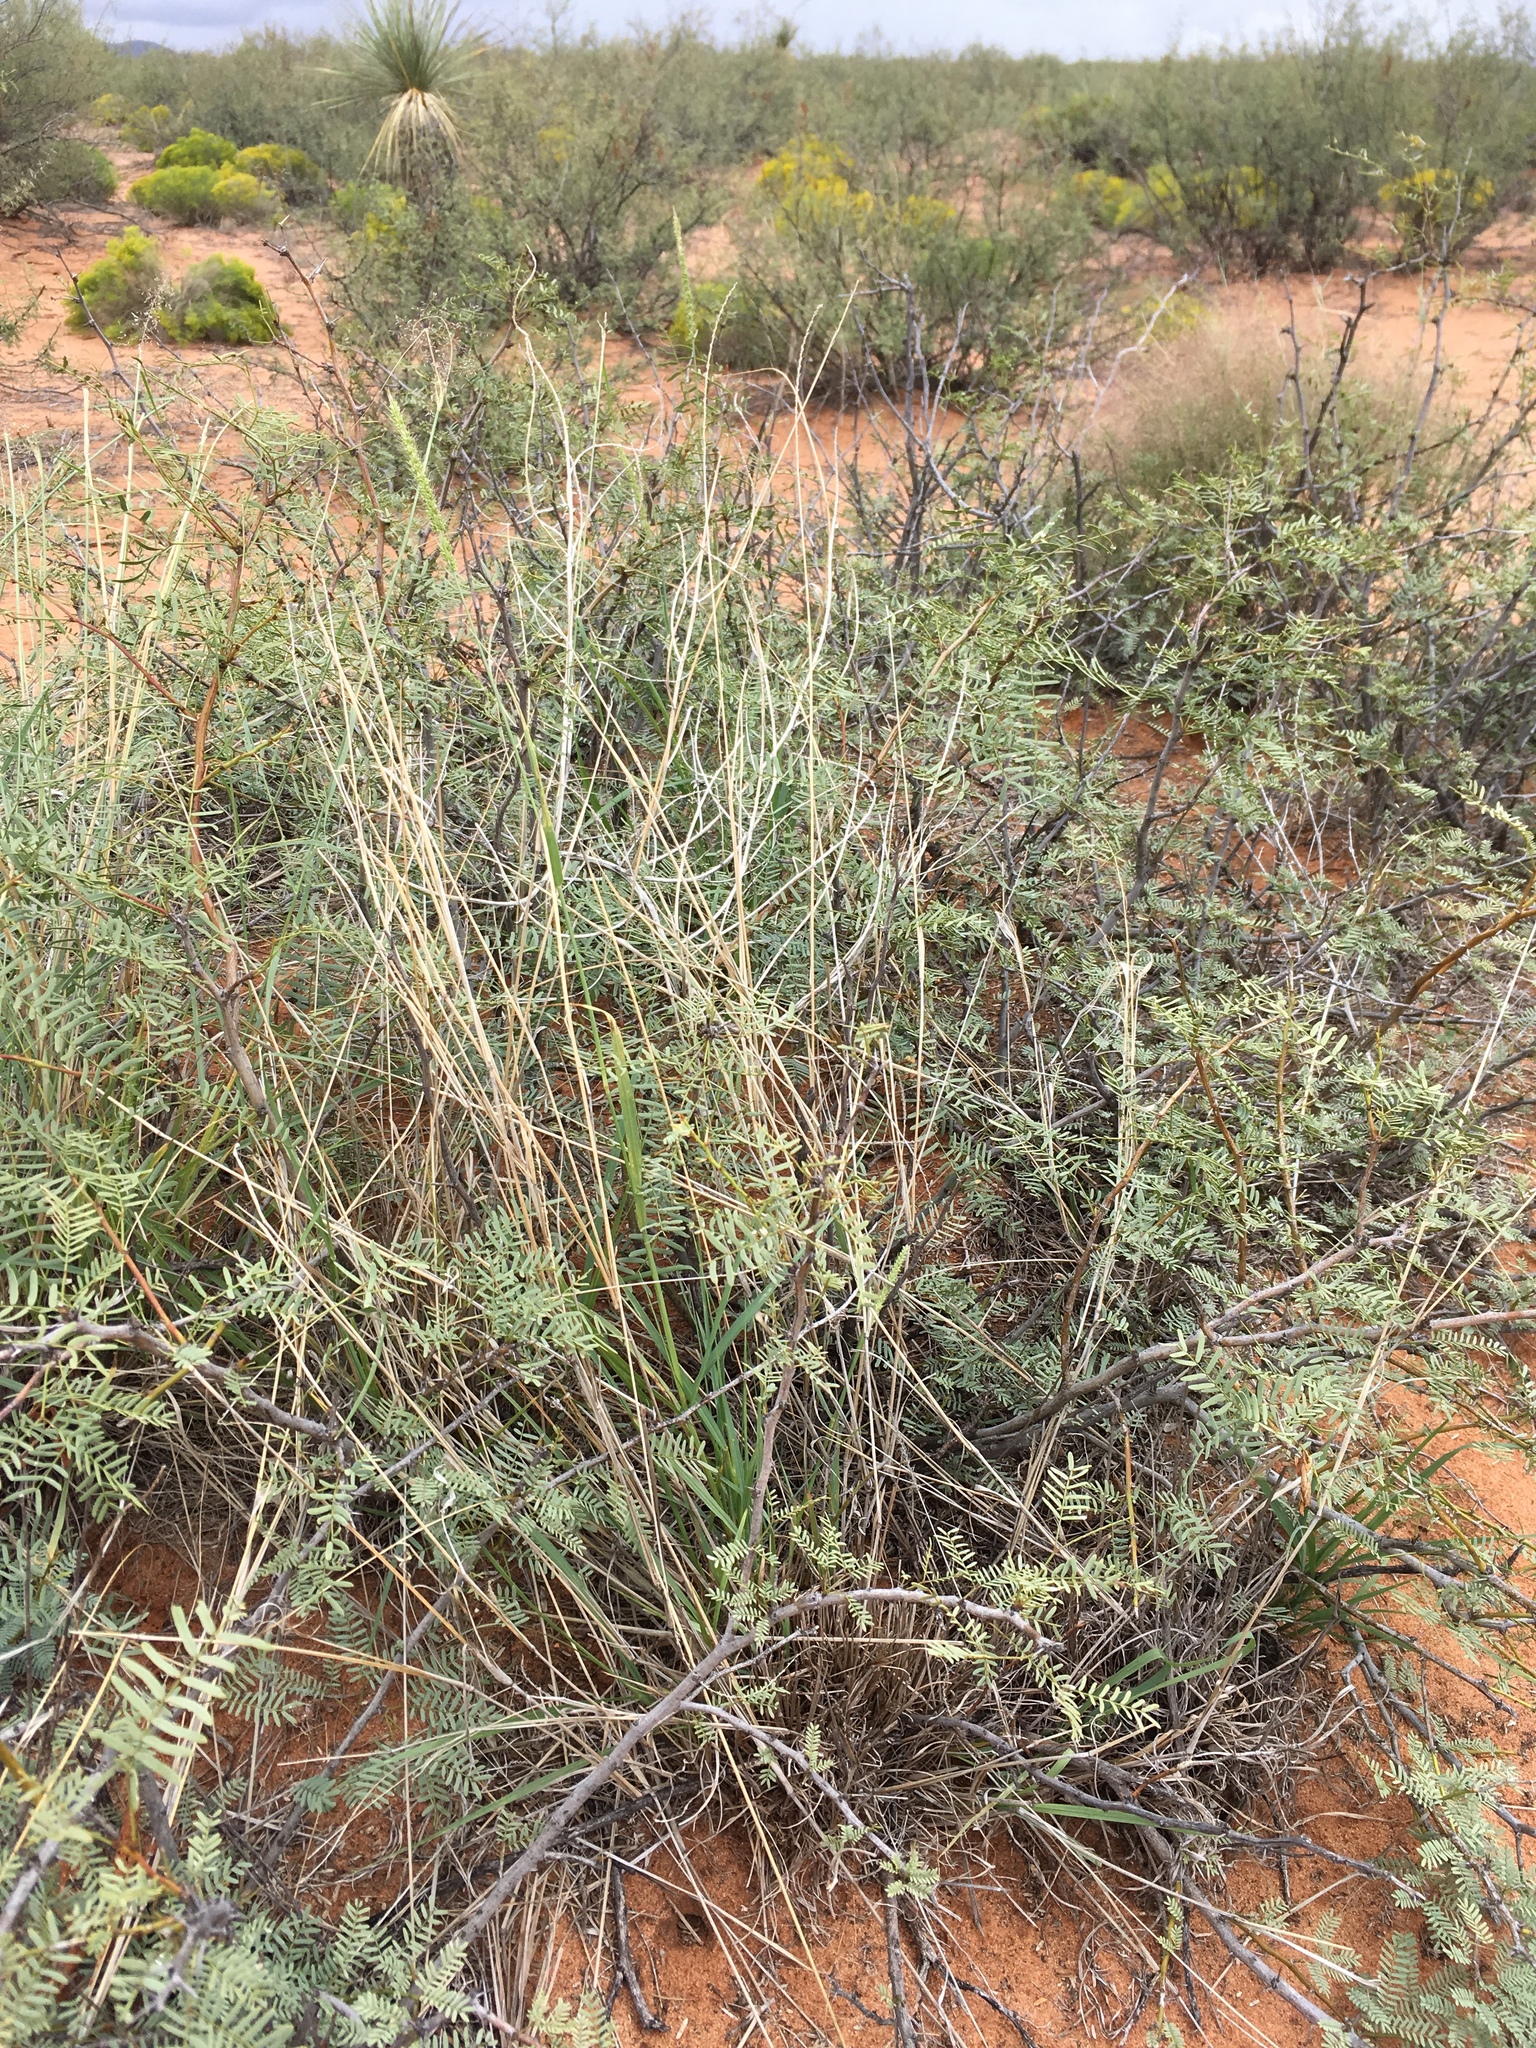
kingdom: Plantae
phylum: Tracheophyta
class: Liliopsida
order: Poales
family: Poaceae
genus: Setaria
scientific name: Setaria leucopila
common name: Plains bristle grass
